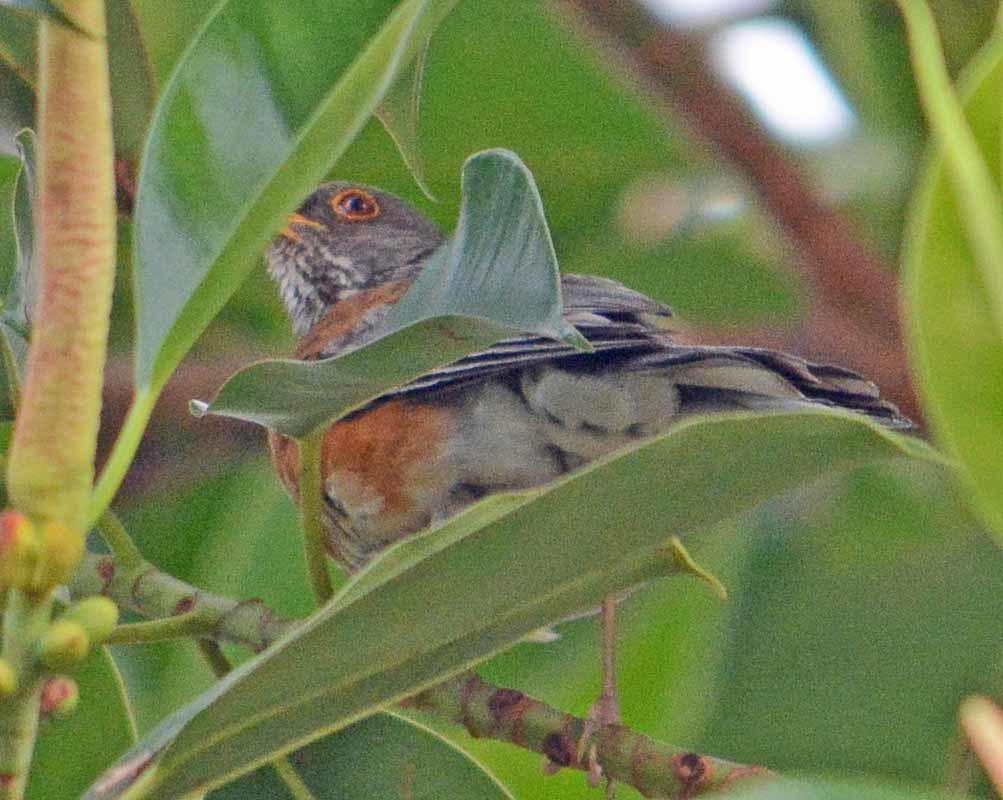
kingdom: Animalia
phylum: Chordata
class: Aves
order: Passeriformes
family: Turdidae
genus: Turdus
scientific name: Turdus rufopalliatus
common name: Rufous-backed robin
